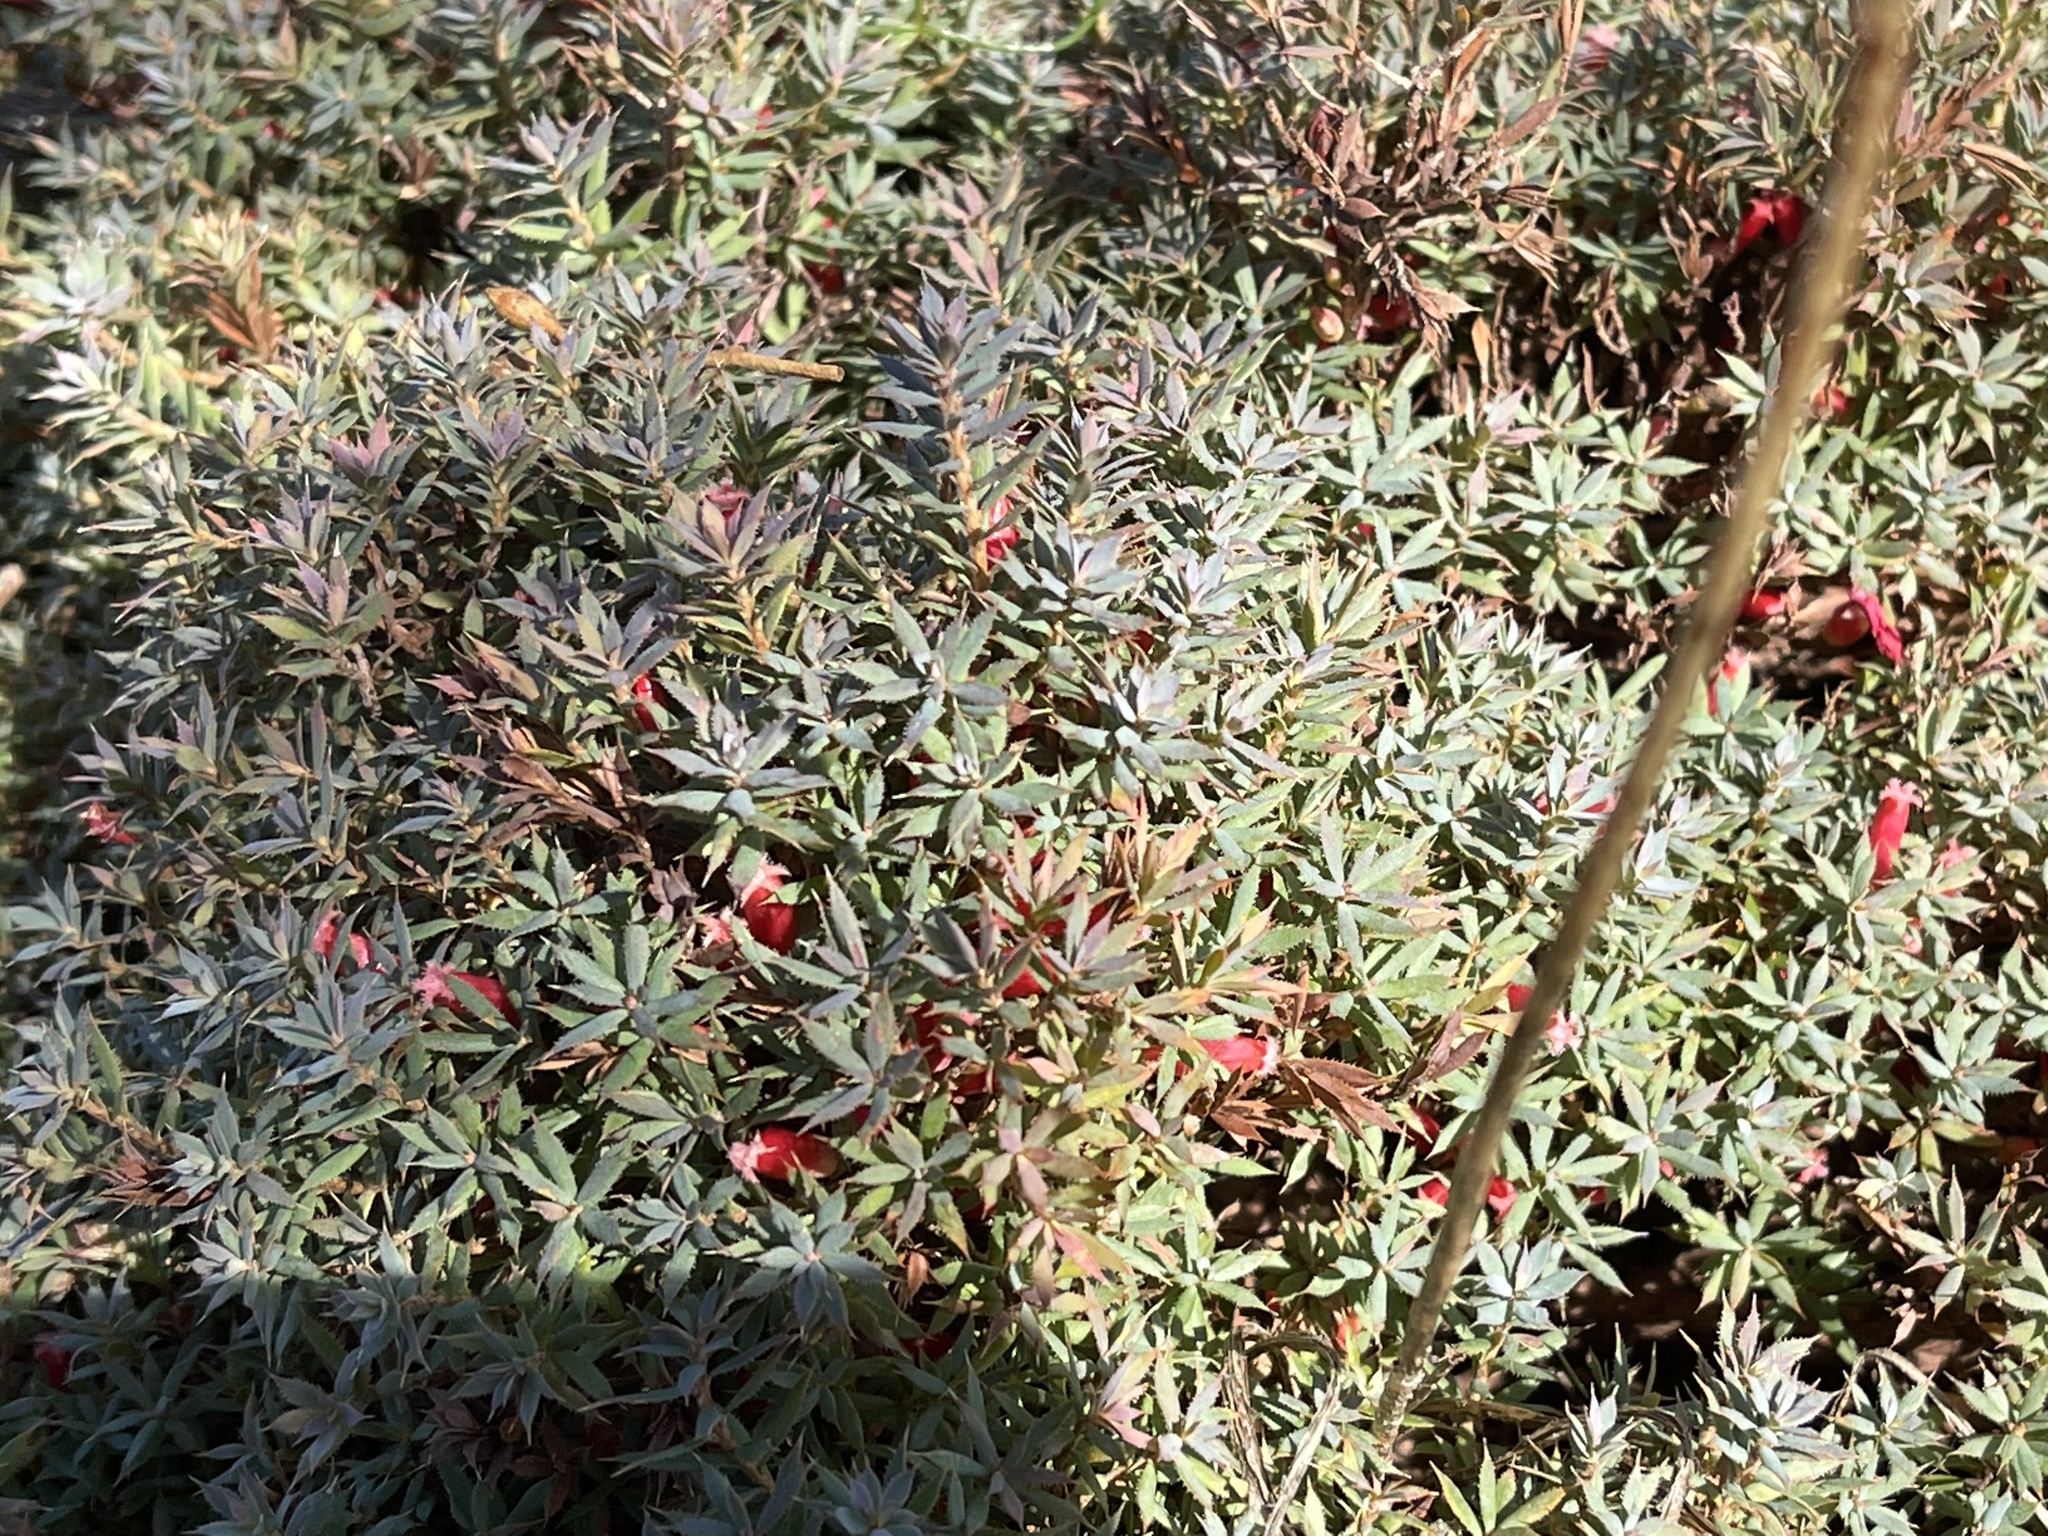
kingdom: Plantae
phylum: Tracheophyta
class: Magnoliopsida
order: Ericales
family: Ericaceae
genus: Styphelia
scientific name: Styphelia humifusa
